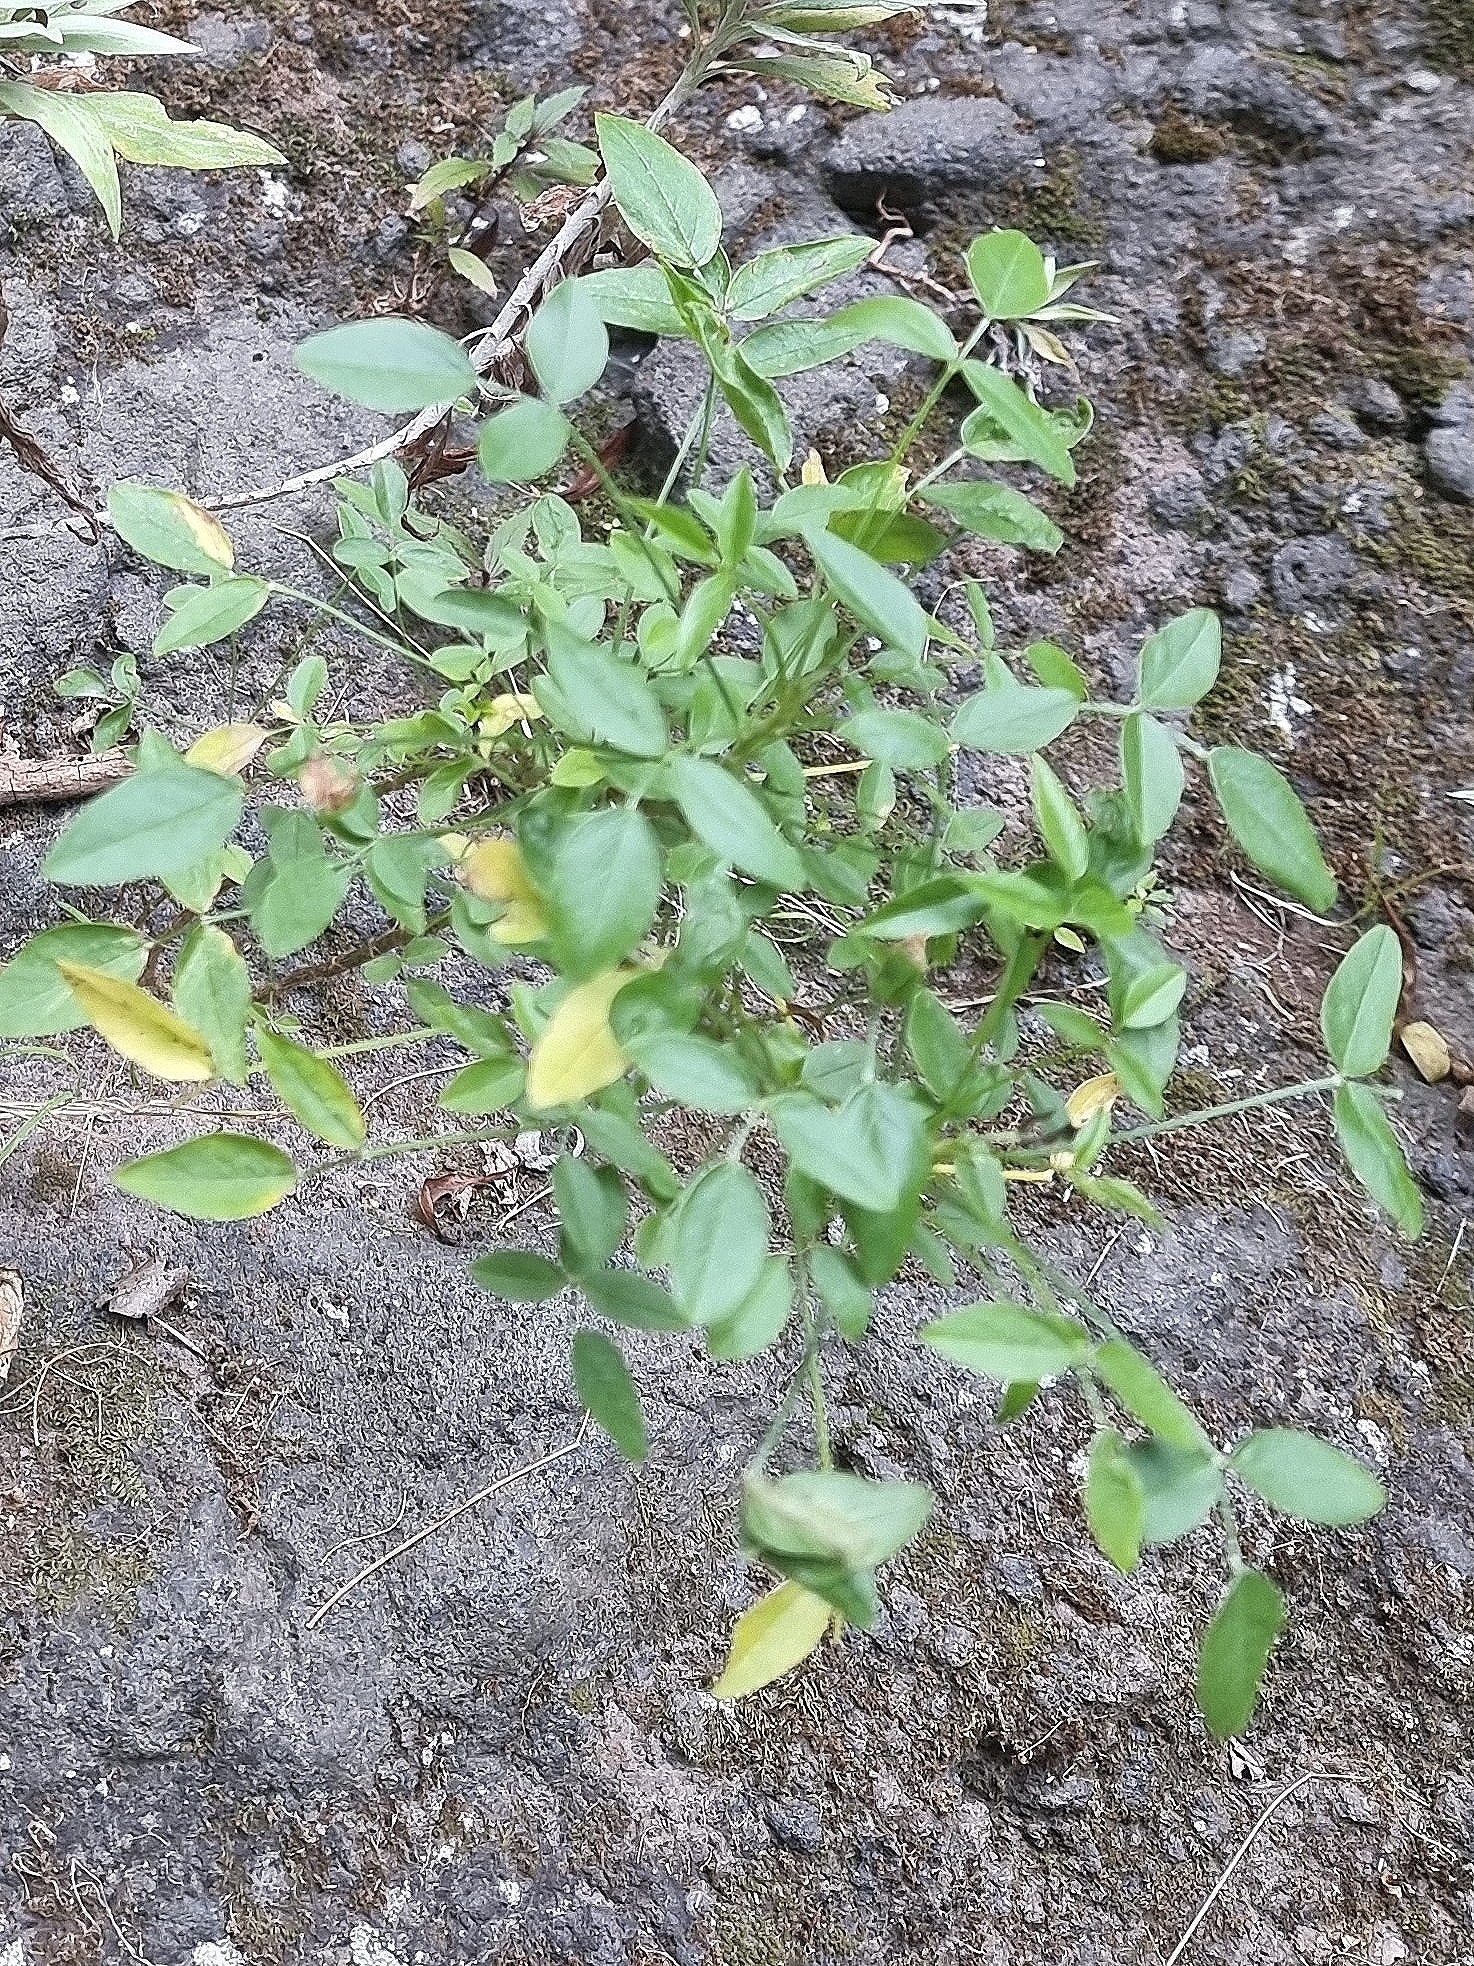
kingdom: Plantae
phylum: Tracheophyta
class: Magnoliopsida
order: Fabales
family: Fabaceae
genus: Bituminaria
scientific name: Bituminaria bituminosa
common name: Arabian pea
